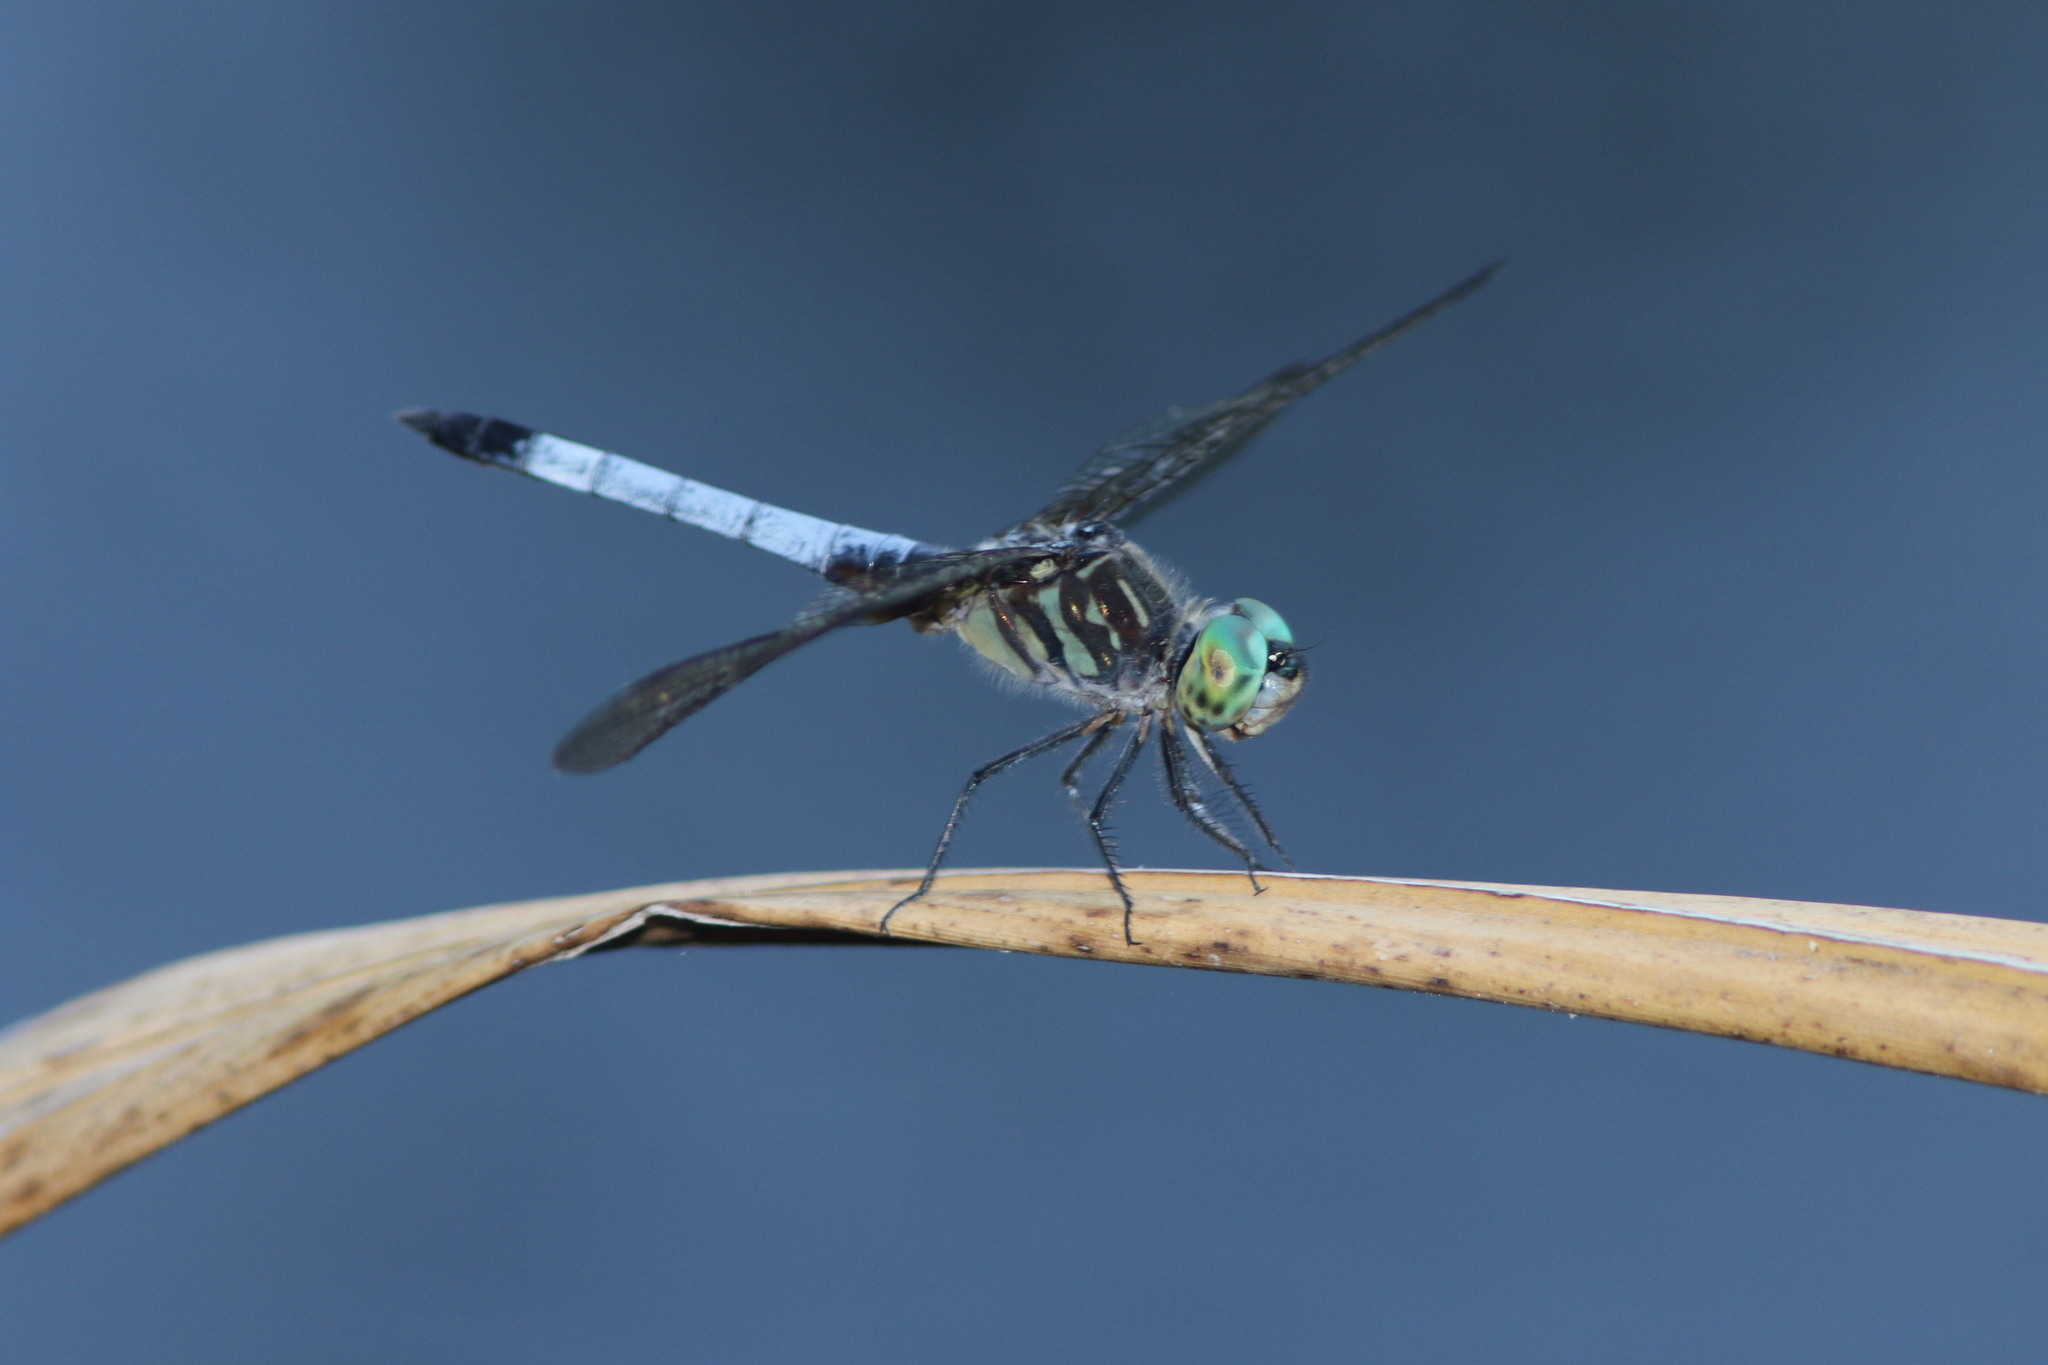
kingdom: Animalia
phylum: Arthropoda
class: Insecta
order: Odonata
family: Libellulidae
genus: Pachydiplax
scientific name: Pachydiplax longipennis
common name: Blue dasher
